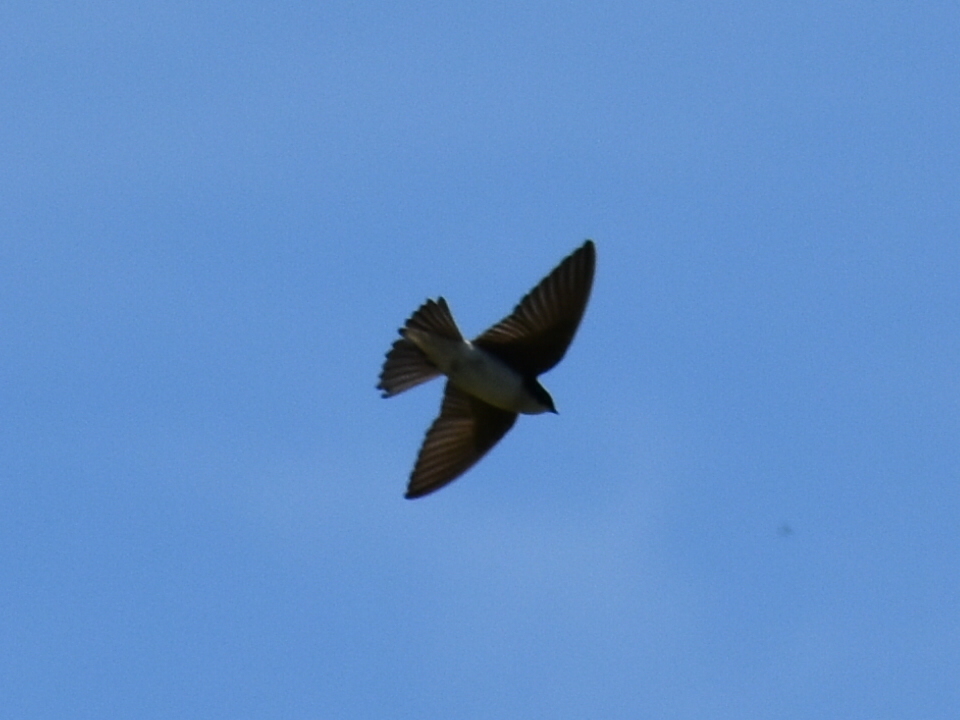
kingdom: Animalia
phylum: Chordata
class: Aves
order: Passeriformes
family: Hirundinidae
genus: Tachycineta
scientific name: Tachycineta bicolor
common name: Tree swallow
